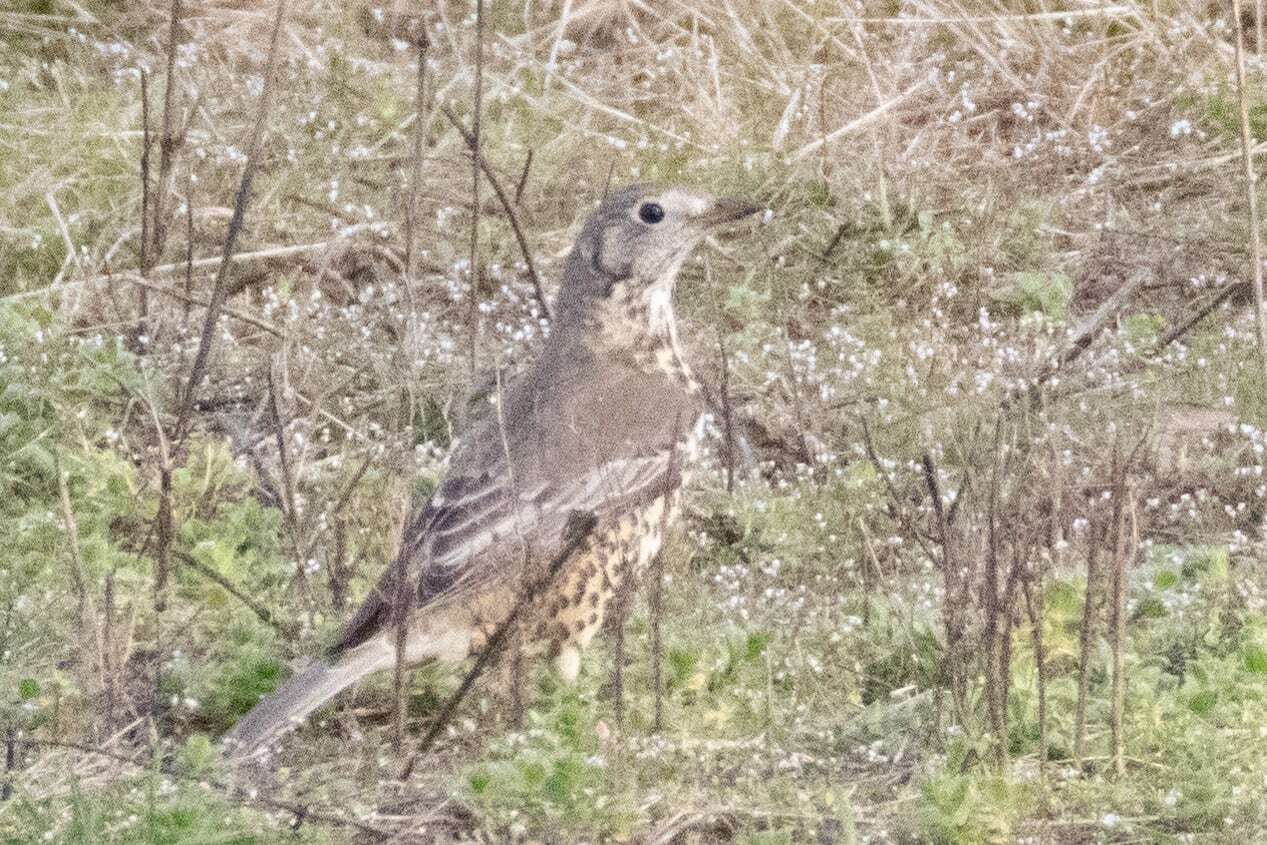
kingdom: Animalia
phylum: Chordata
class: Aves
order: Passeriformes
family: Turdidae
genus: Turdus
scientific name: Turdus viscivorus
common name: Mistle thrush
